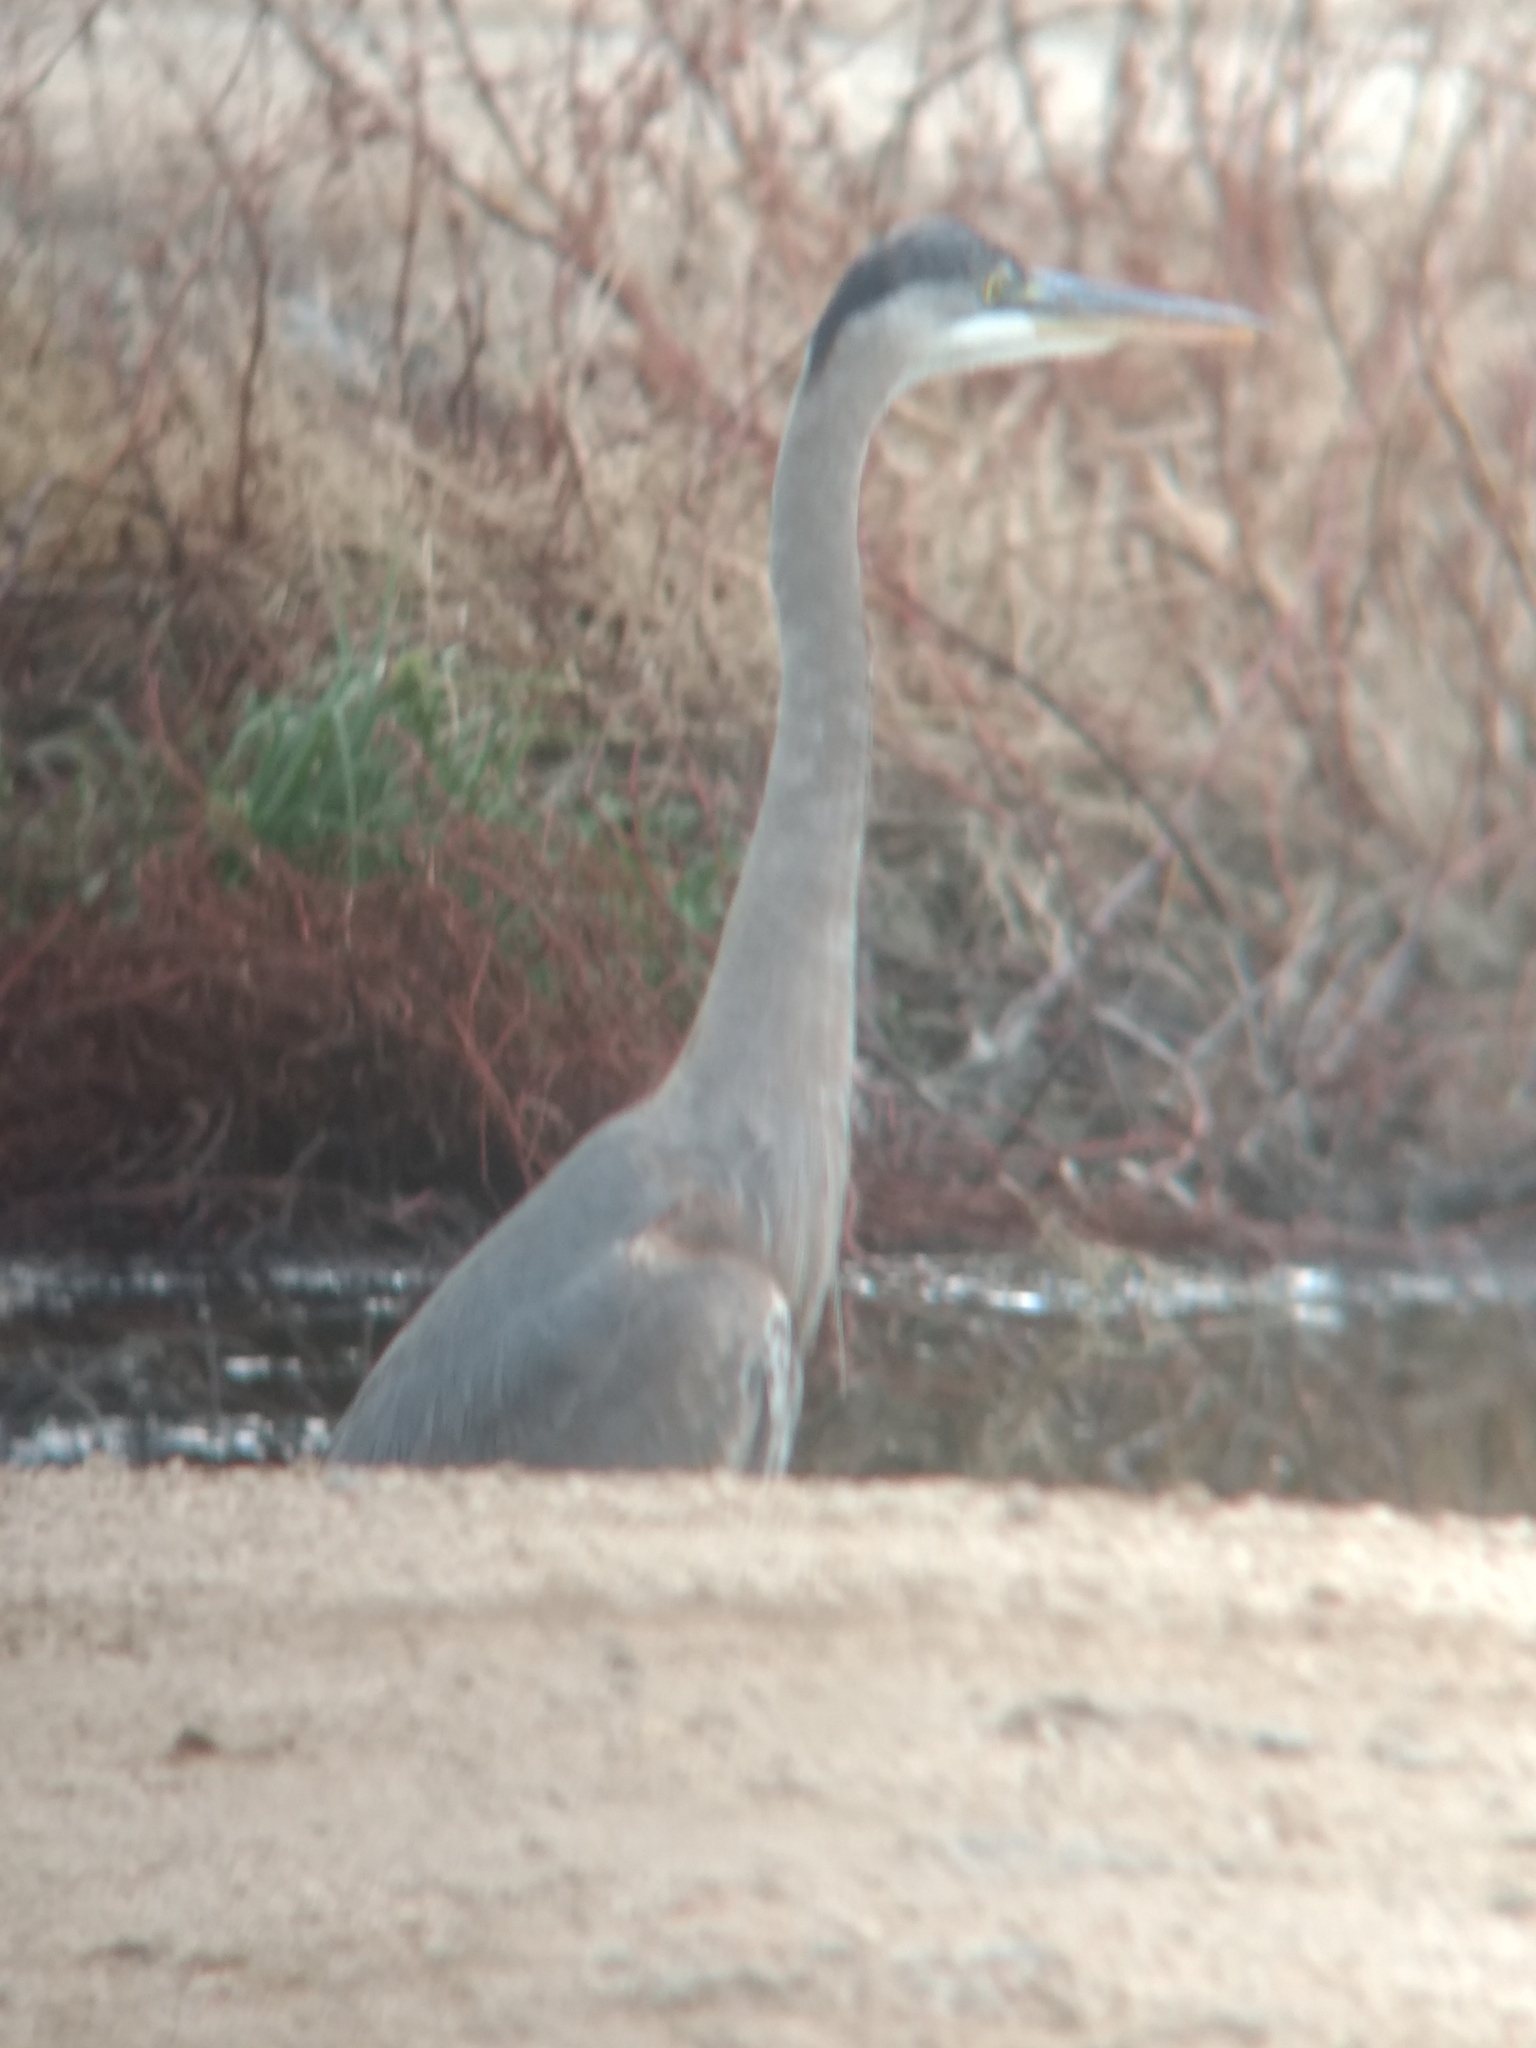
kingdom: Animalia
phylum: Chordata
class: Aves
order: Pelecaniformes
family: Ardeidae
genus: Ardea
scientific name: Ardea herodias
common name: Great blue heron
